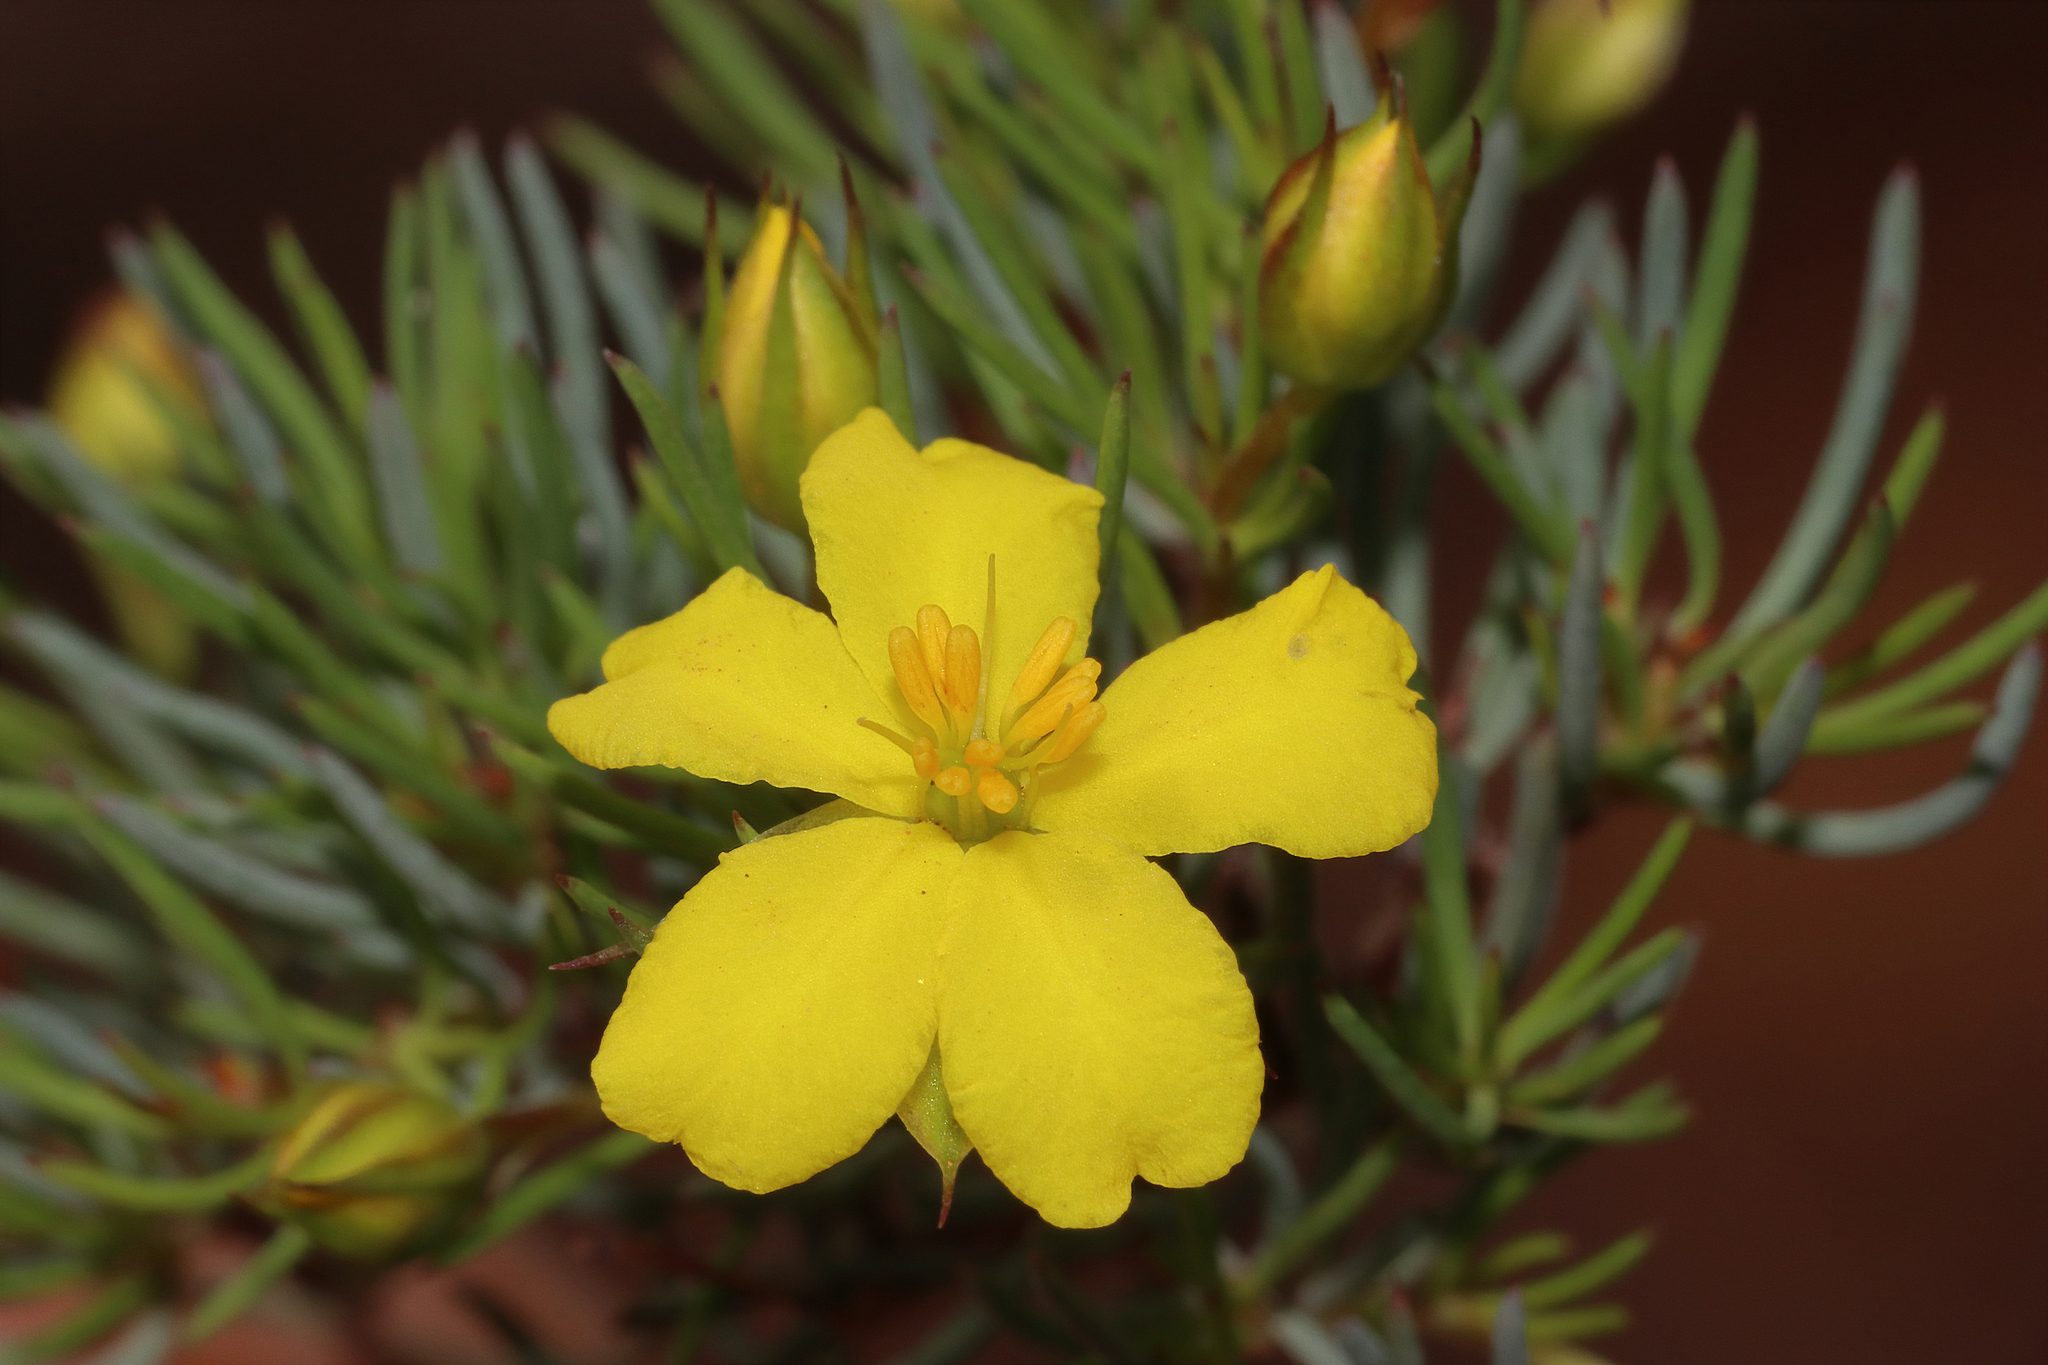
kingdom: Plantae
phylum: Tracheophyta
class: Magnoliopsida
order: Dilleniales
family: Dilleniaceae
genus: Hibbertia
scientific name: Hibbertia hibbertioides
